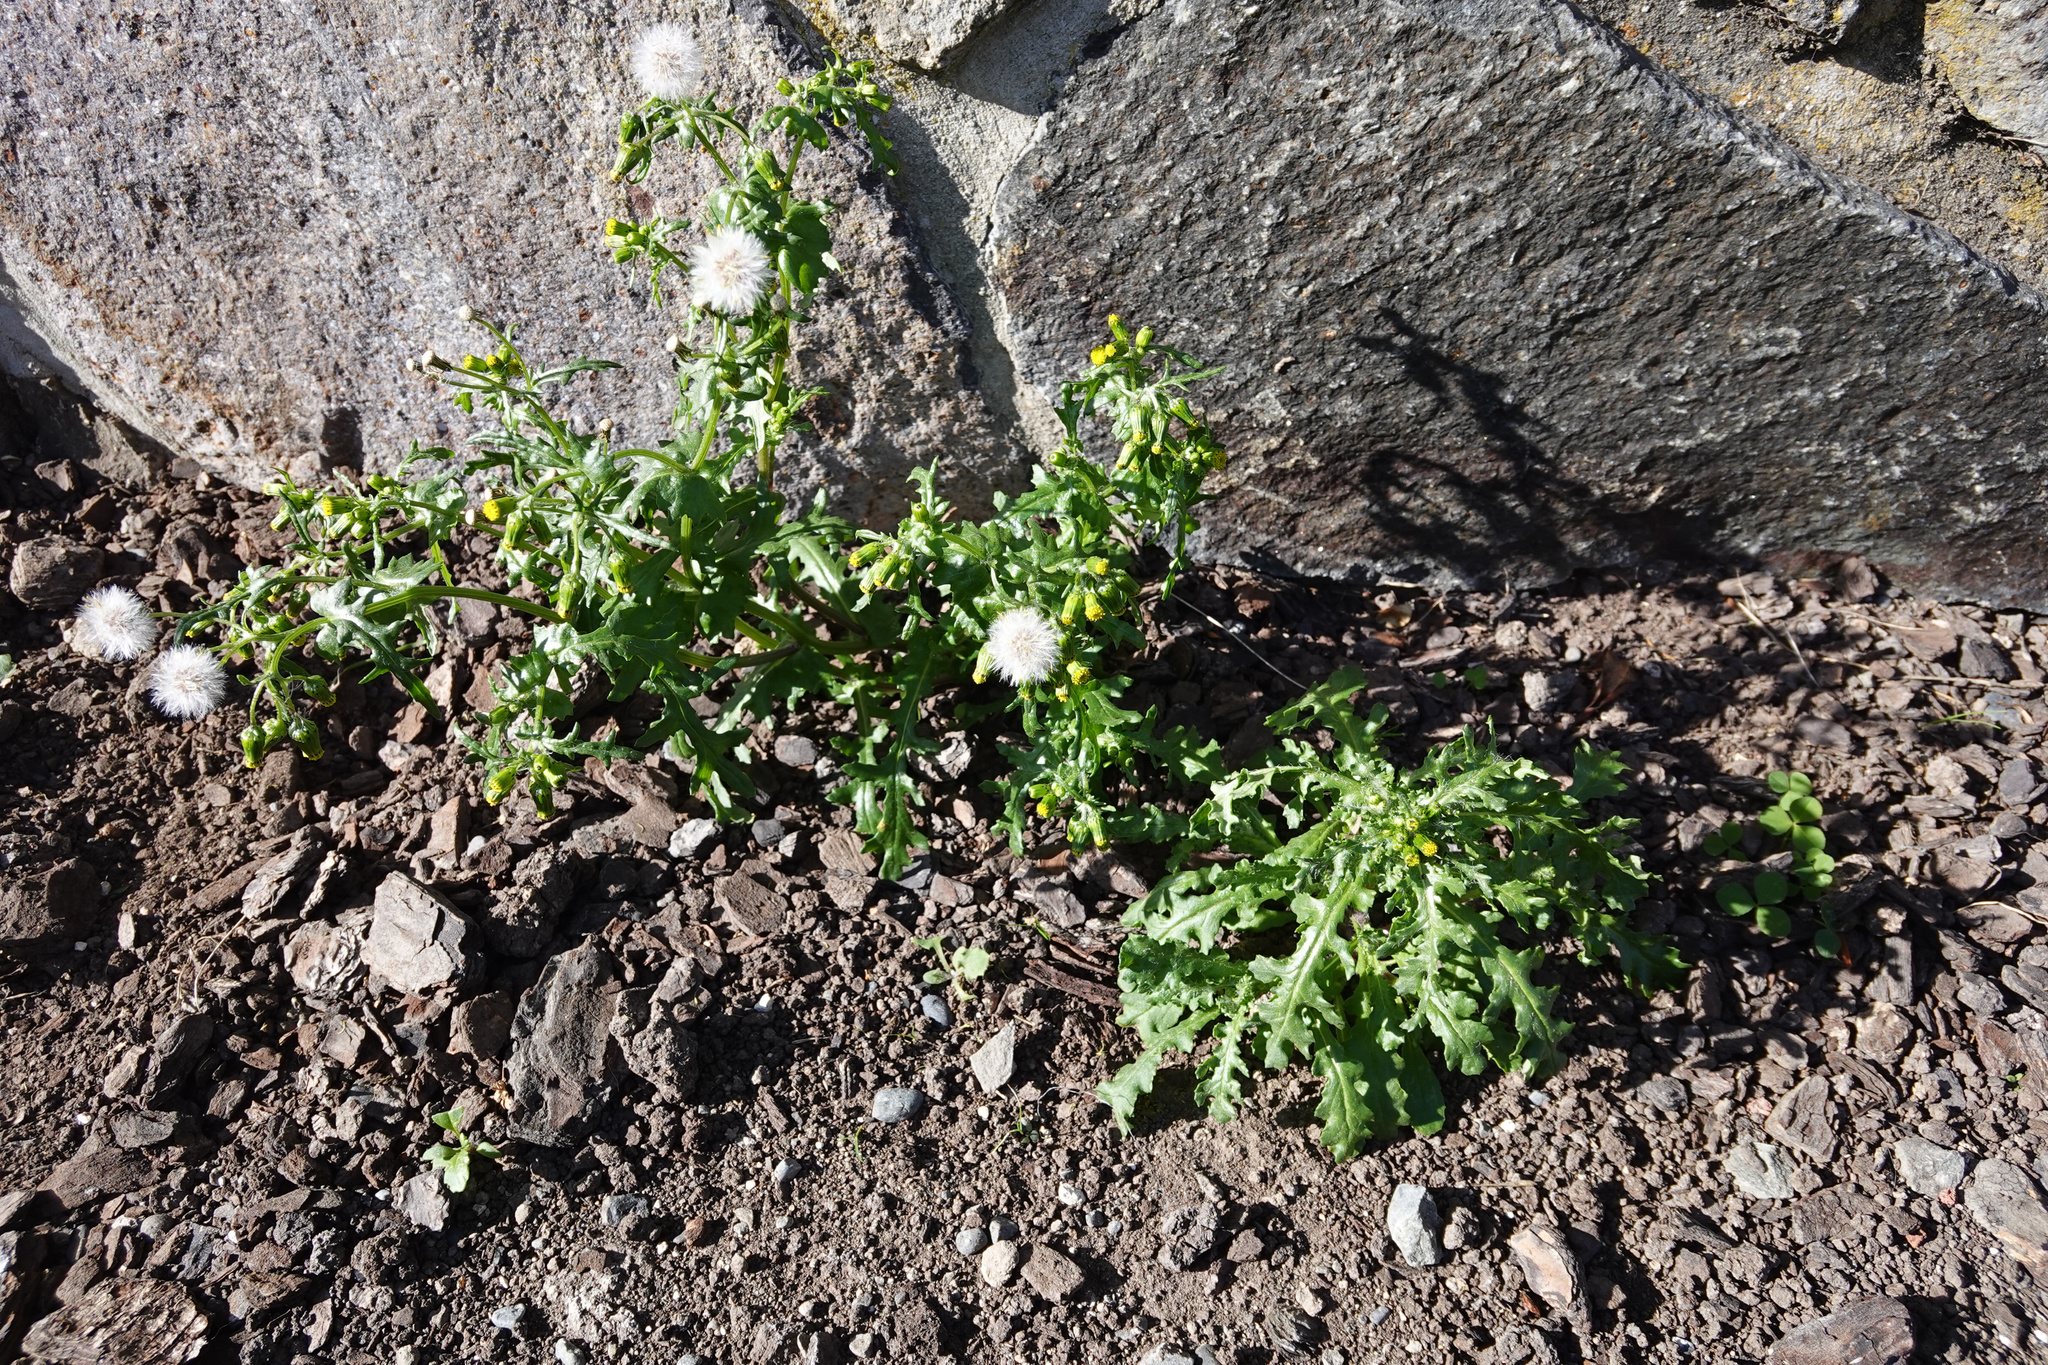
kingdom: Plantae
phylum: Tracheophyta
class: Magnoliopsida
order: Asterales
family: Asteraceae
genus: Senecio
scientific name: Senecio vulgaris
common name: Old-man-in-the-spring
